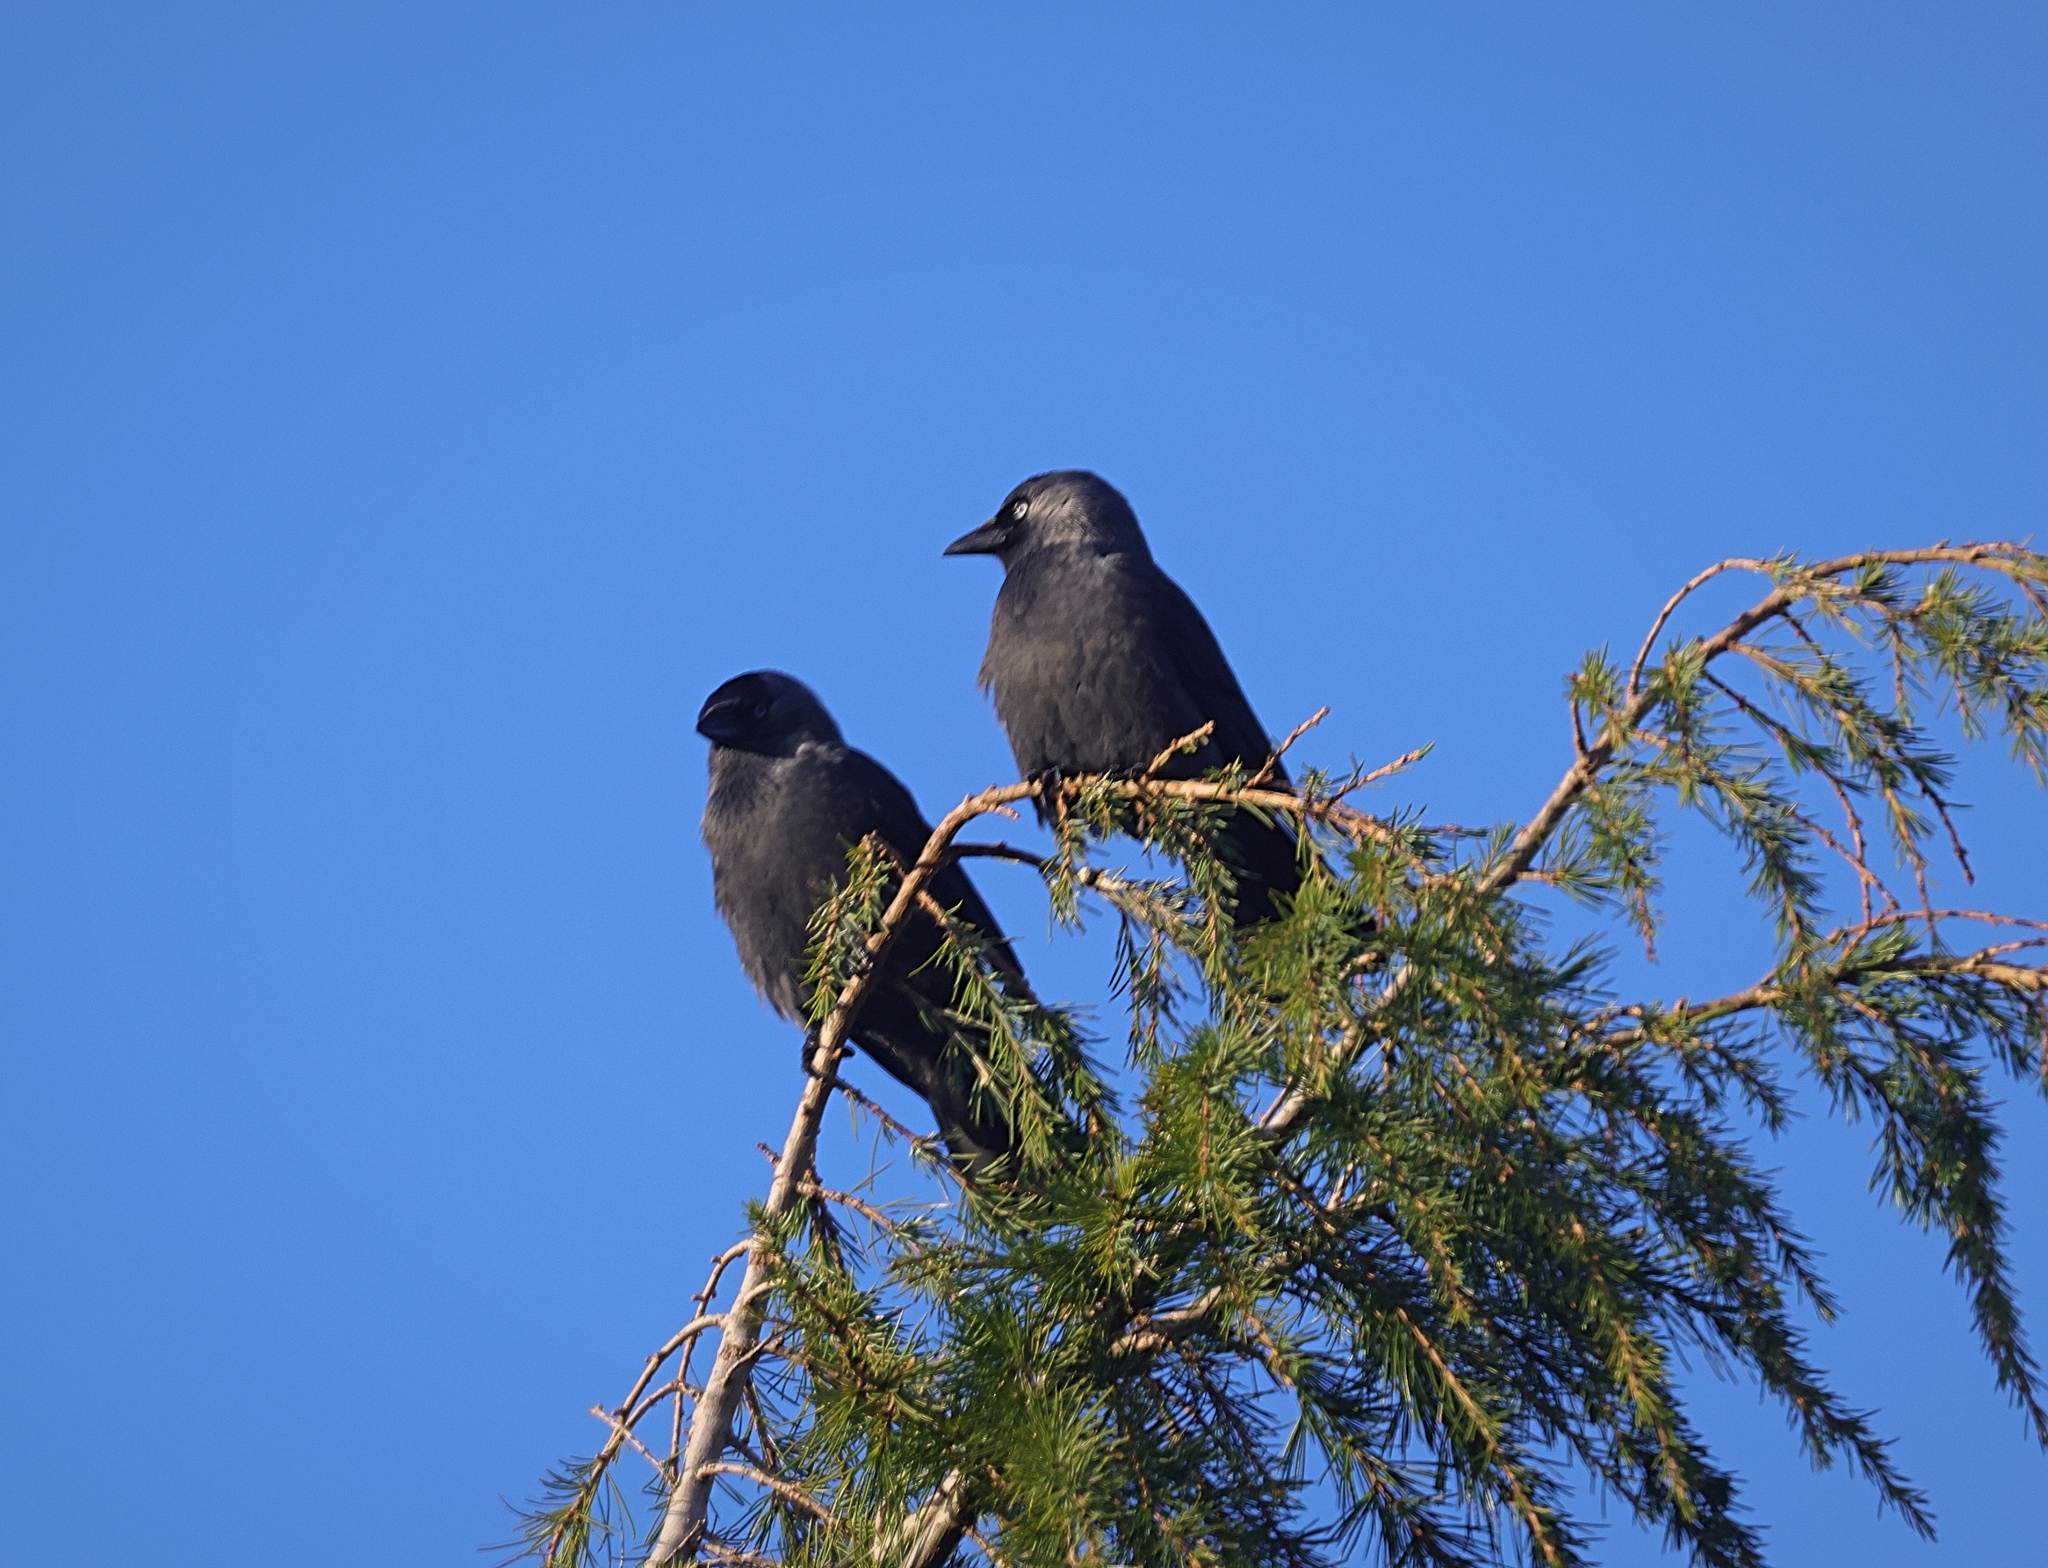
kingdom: Animalia
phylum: Chordata
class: Aves
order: Passeriformes
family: Corvidae
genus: Coloeus
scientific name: Coloeus monedula
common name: Western jackdaw
